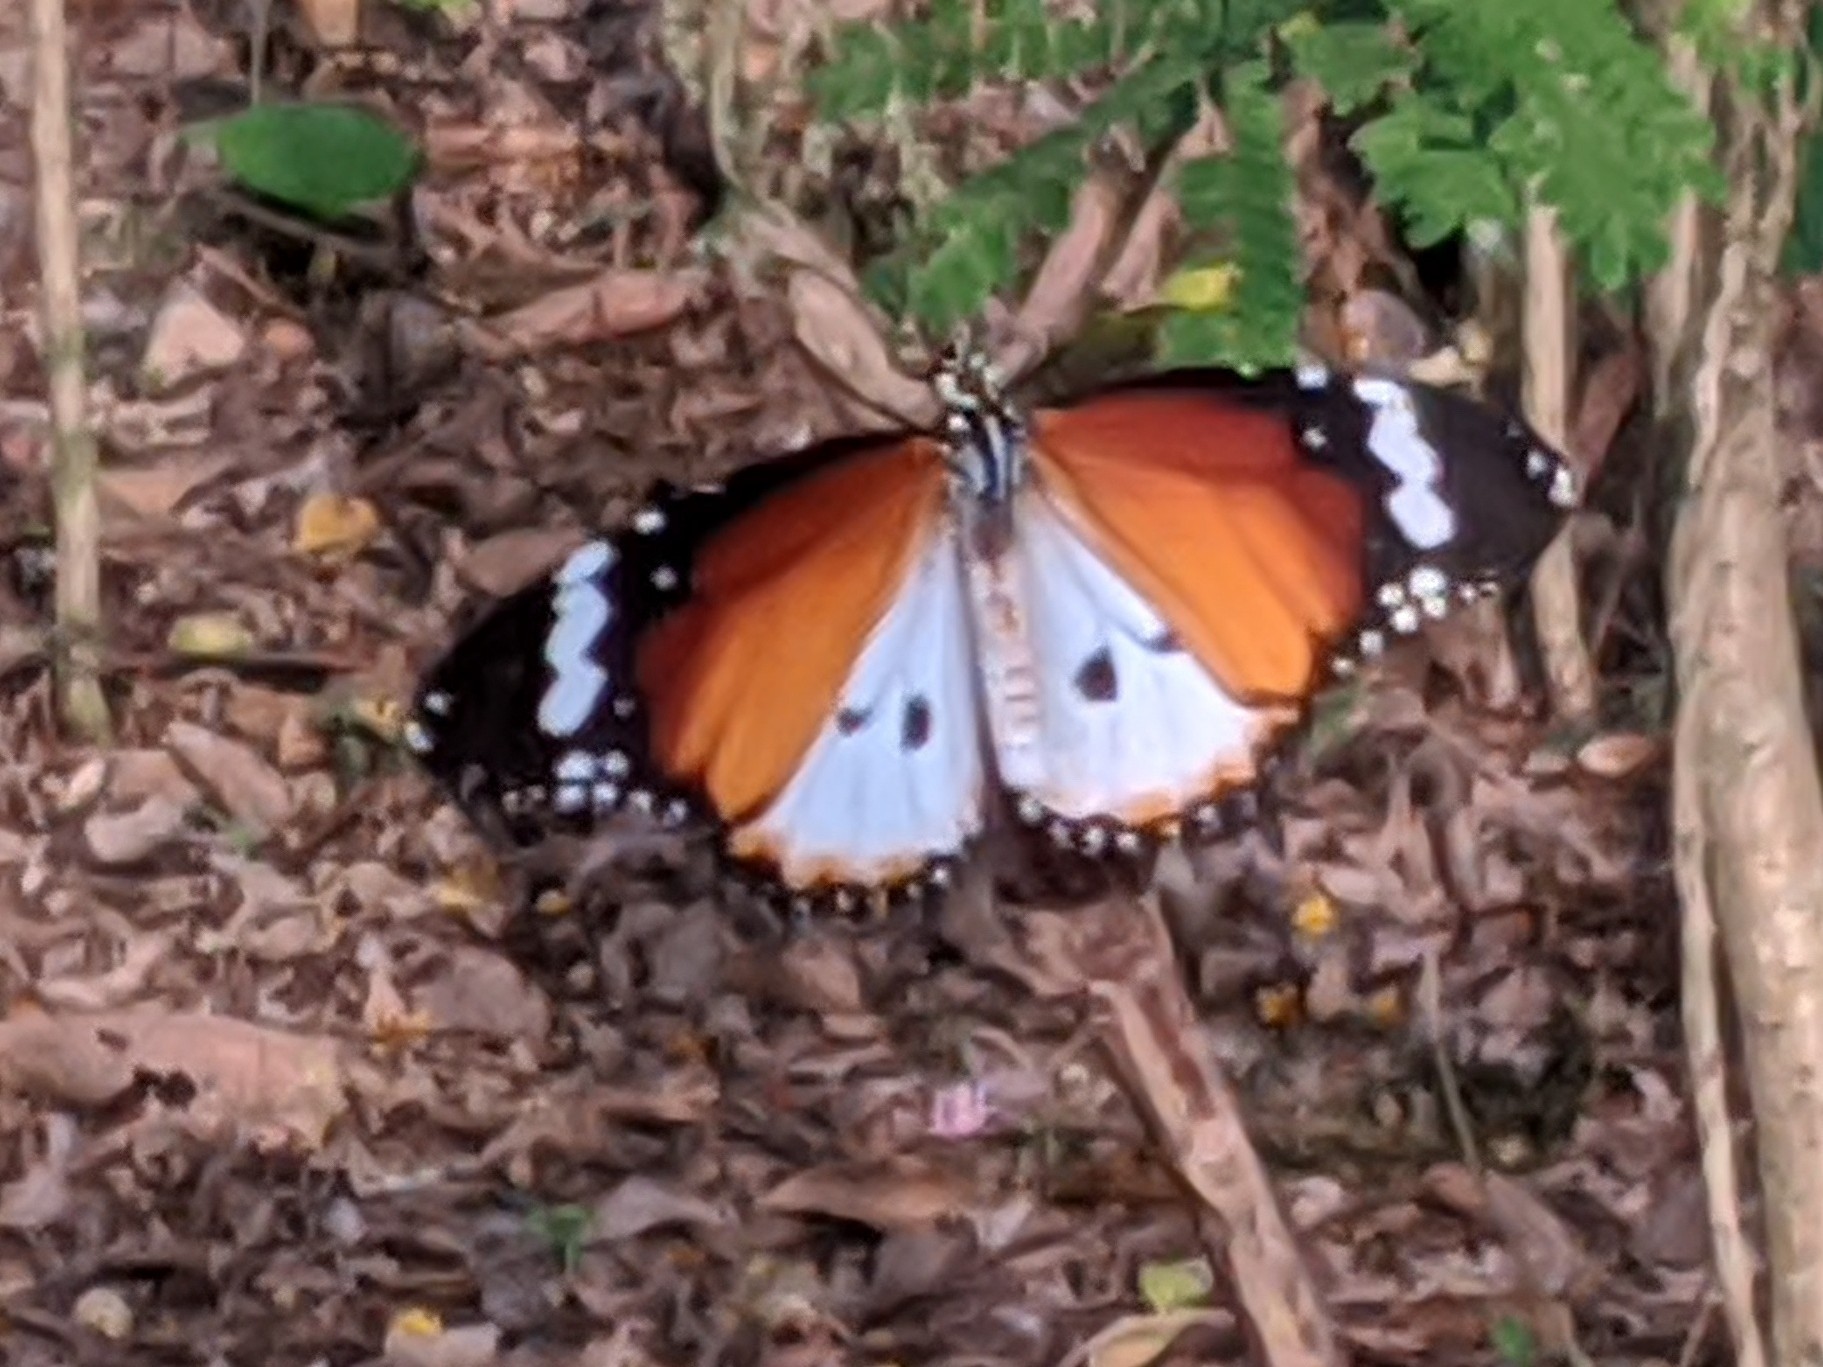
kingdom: Animalia
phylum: Arthropoda
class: Insecta
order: Lepidoptera
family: Nymphalidae
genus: Danaus
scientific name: Danaus chrysippus
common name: Plain tiger
